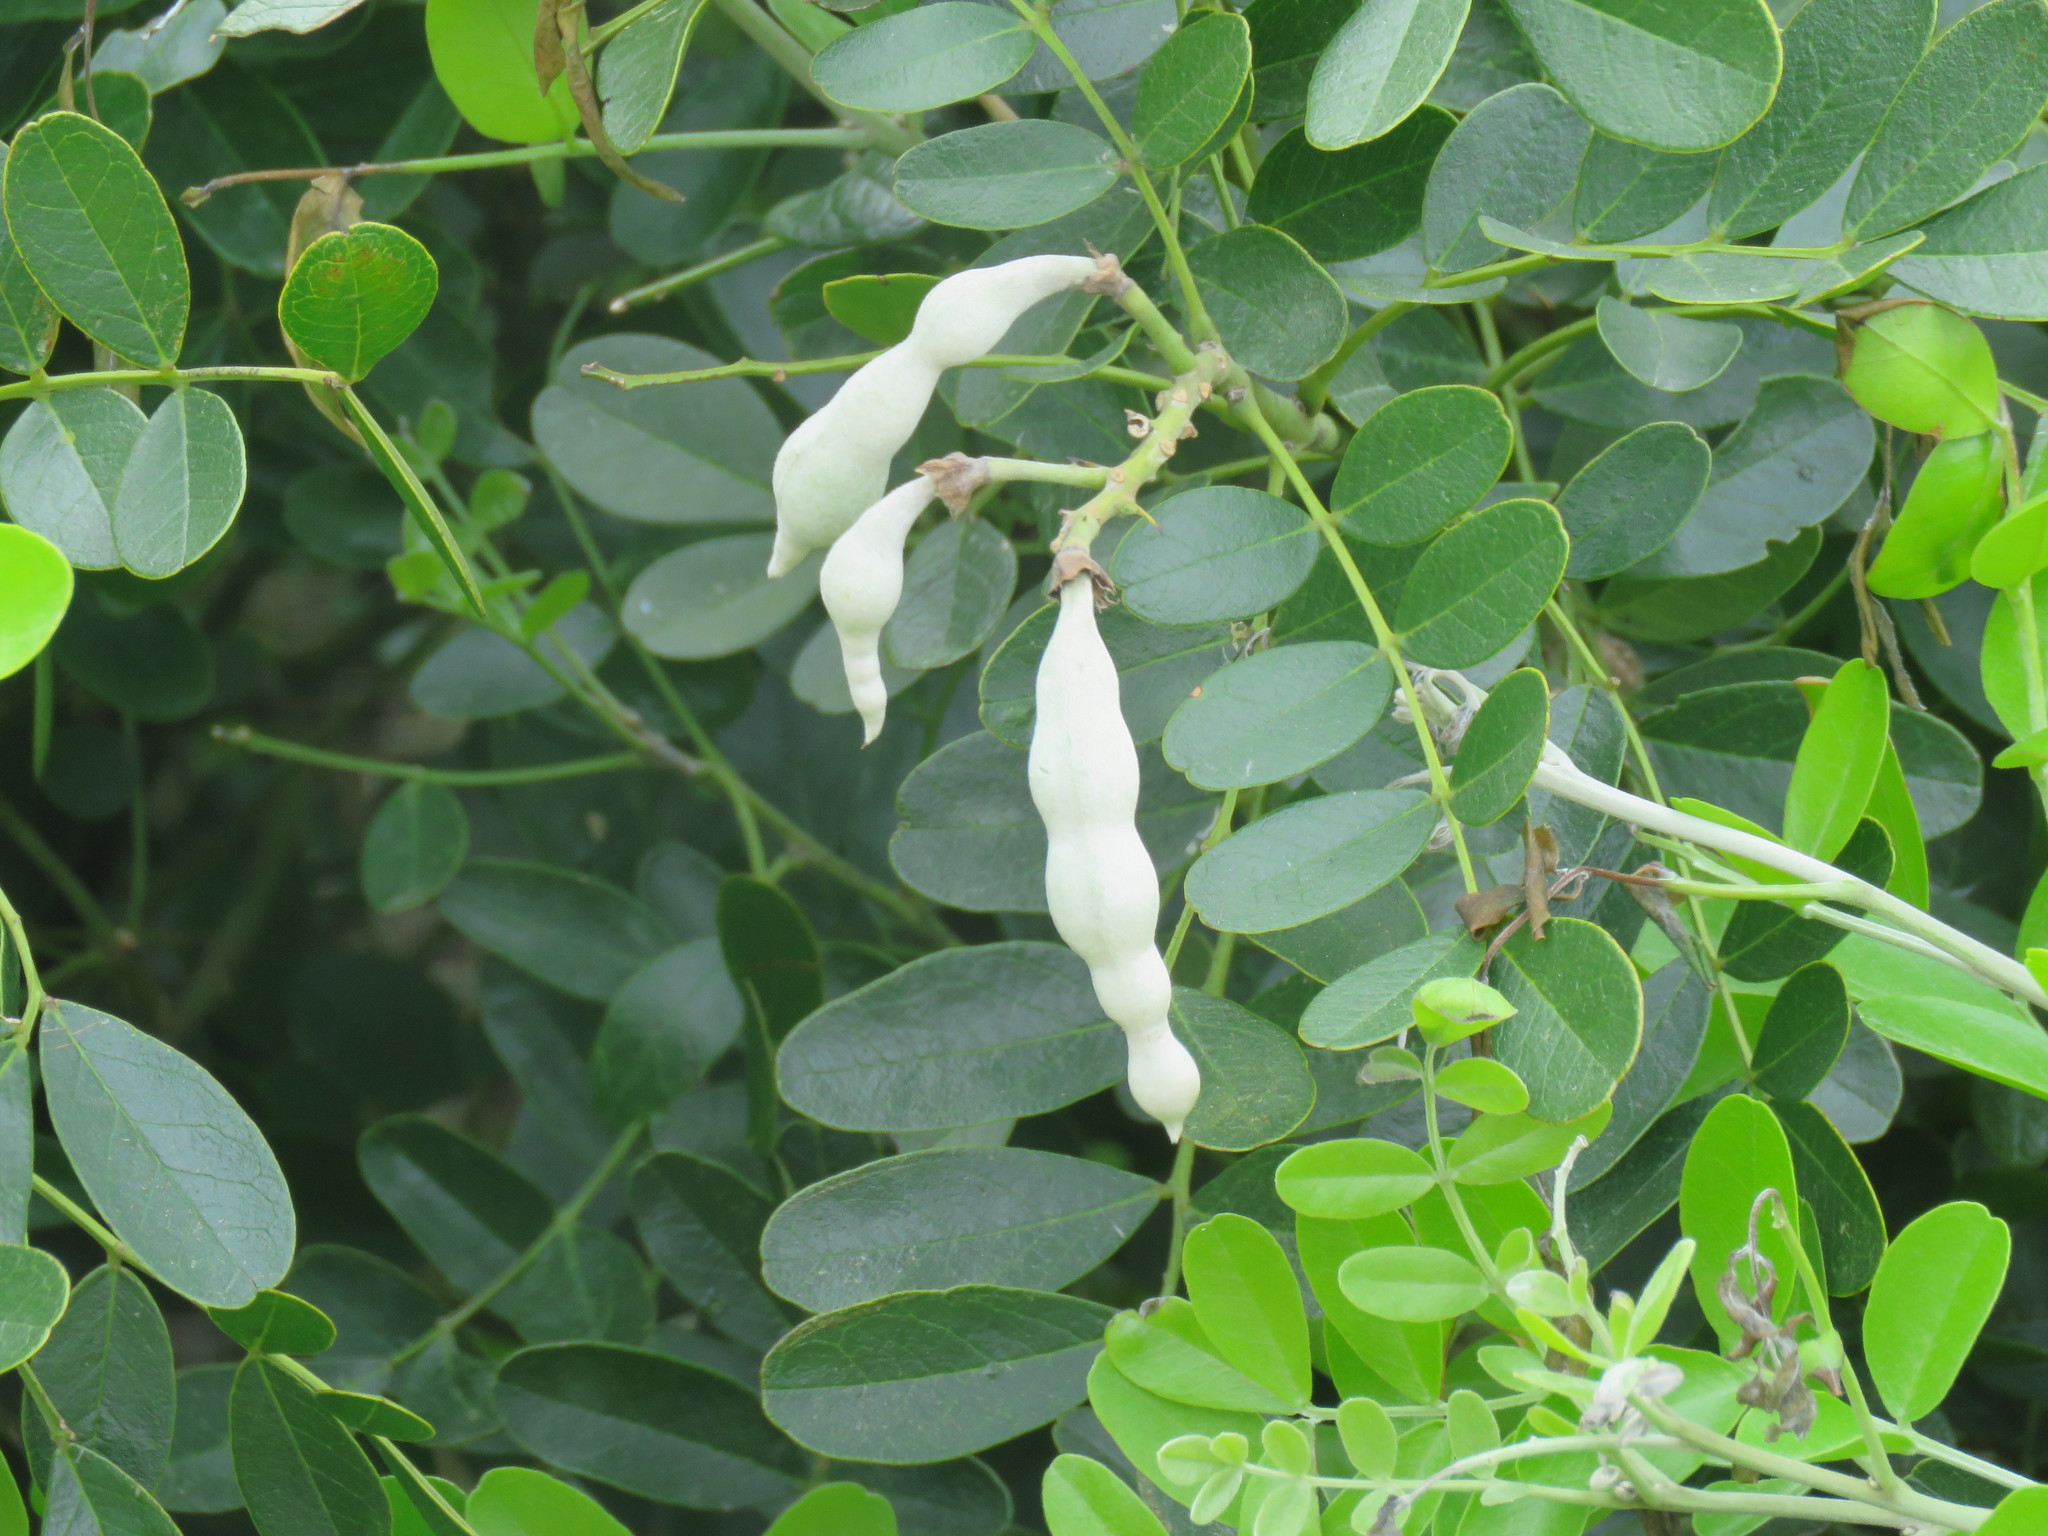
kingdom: Plantae
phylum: Tracheophyta
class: Magnoliopsida
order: Fabales
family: Fabaceae
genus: Dermatophyllum
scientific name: Dermatophyllum secundiflorum
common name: Texas-mountain-laurel
